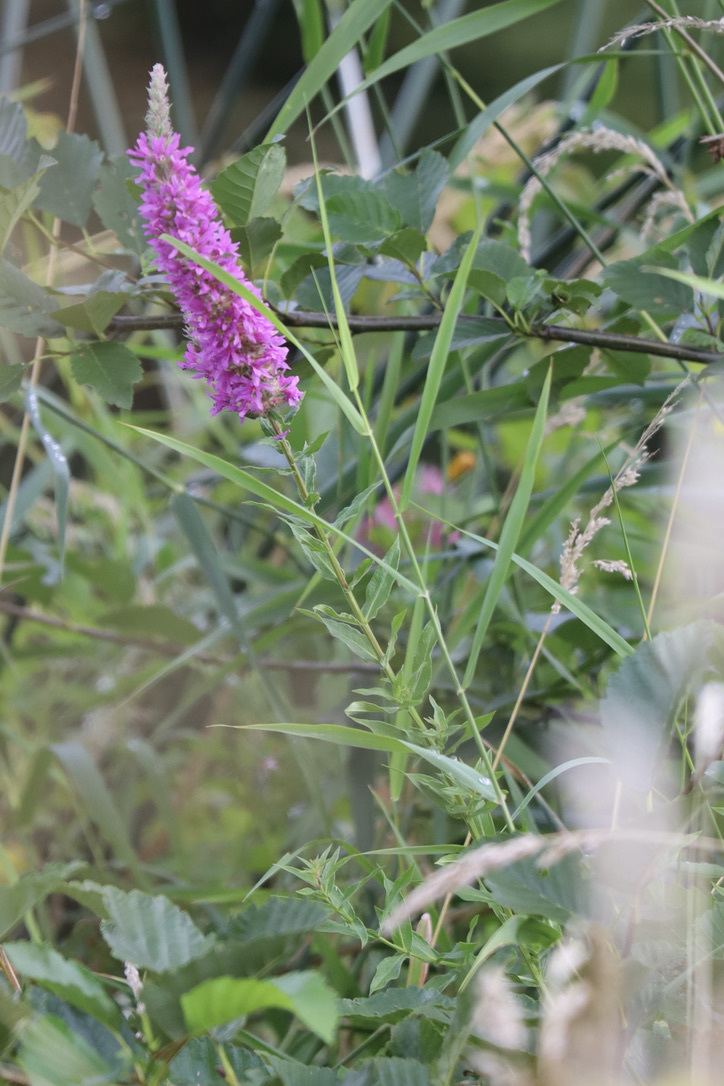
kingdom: Plantae
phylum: Tracheophyta
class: Magnoliopsida
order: Myrtales
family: Lythraceae
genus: Lythrum
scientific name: Lythrum salicaria
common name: Purple loosestrife
